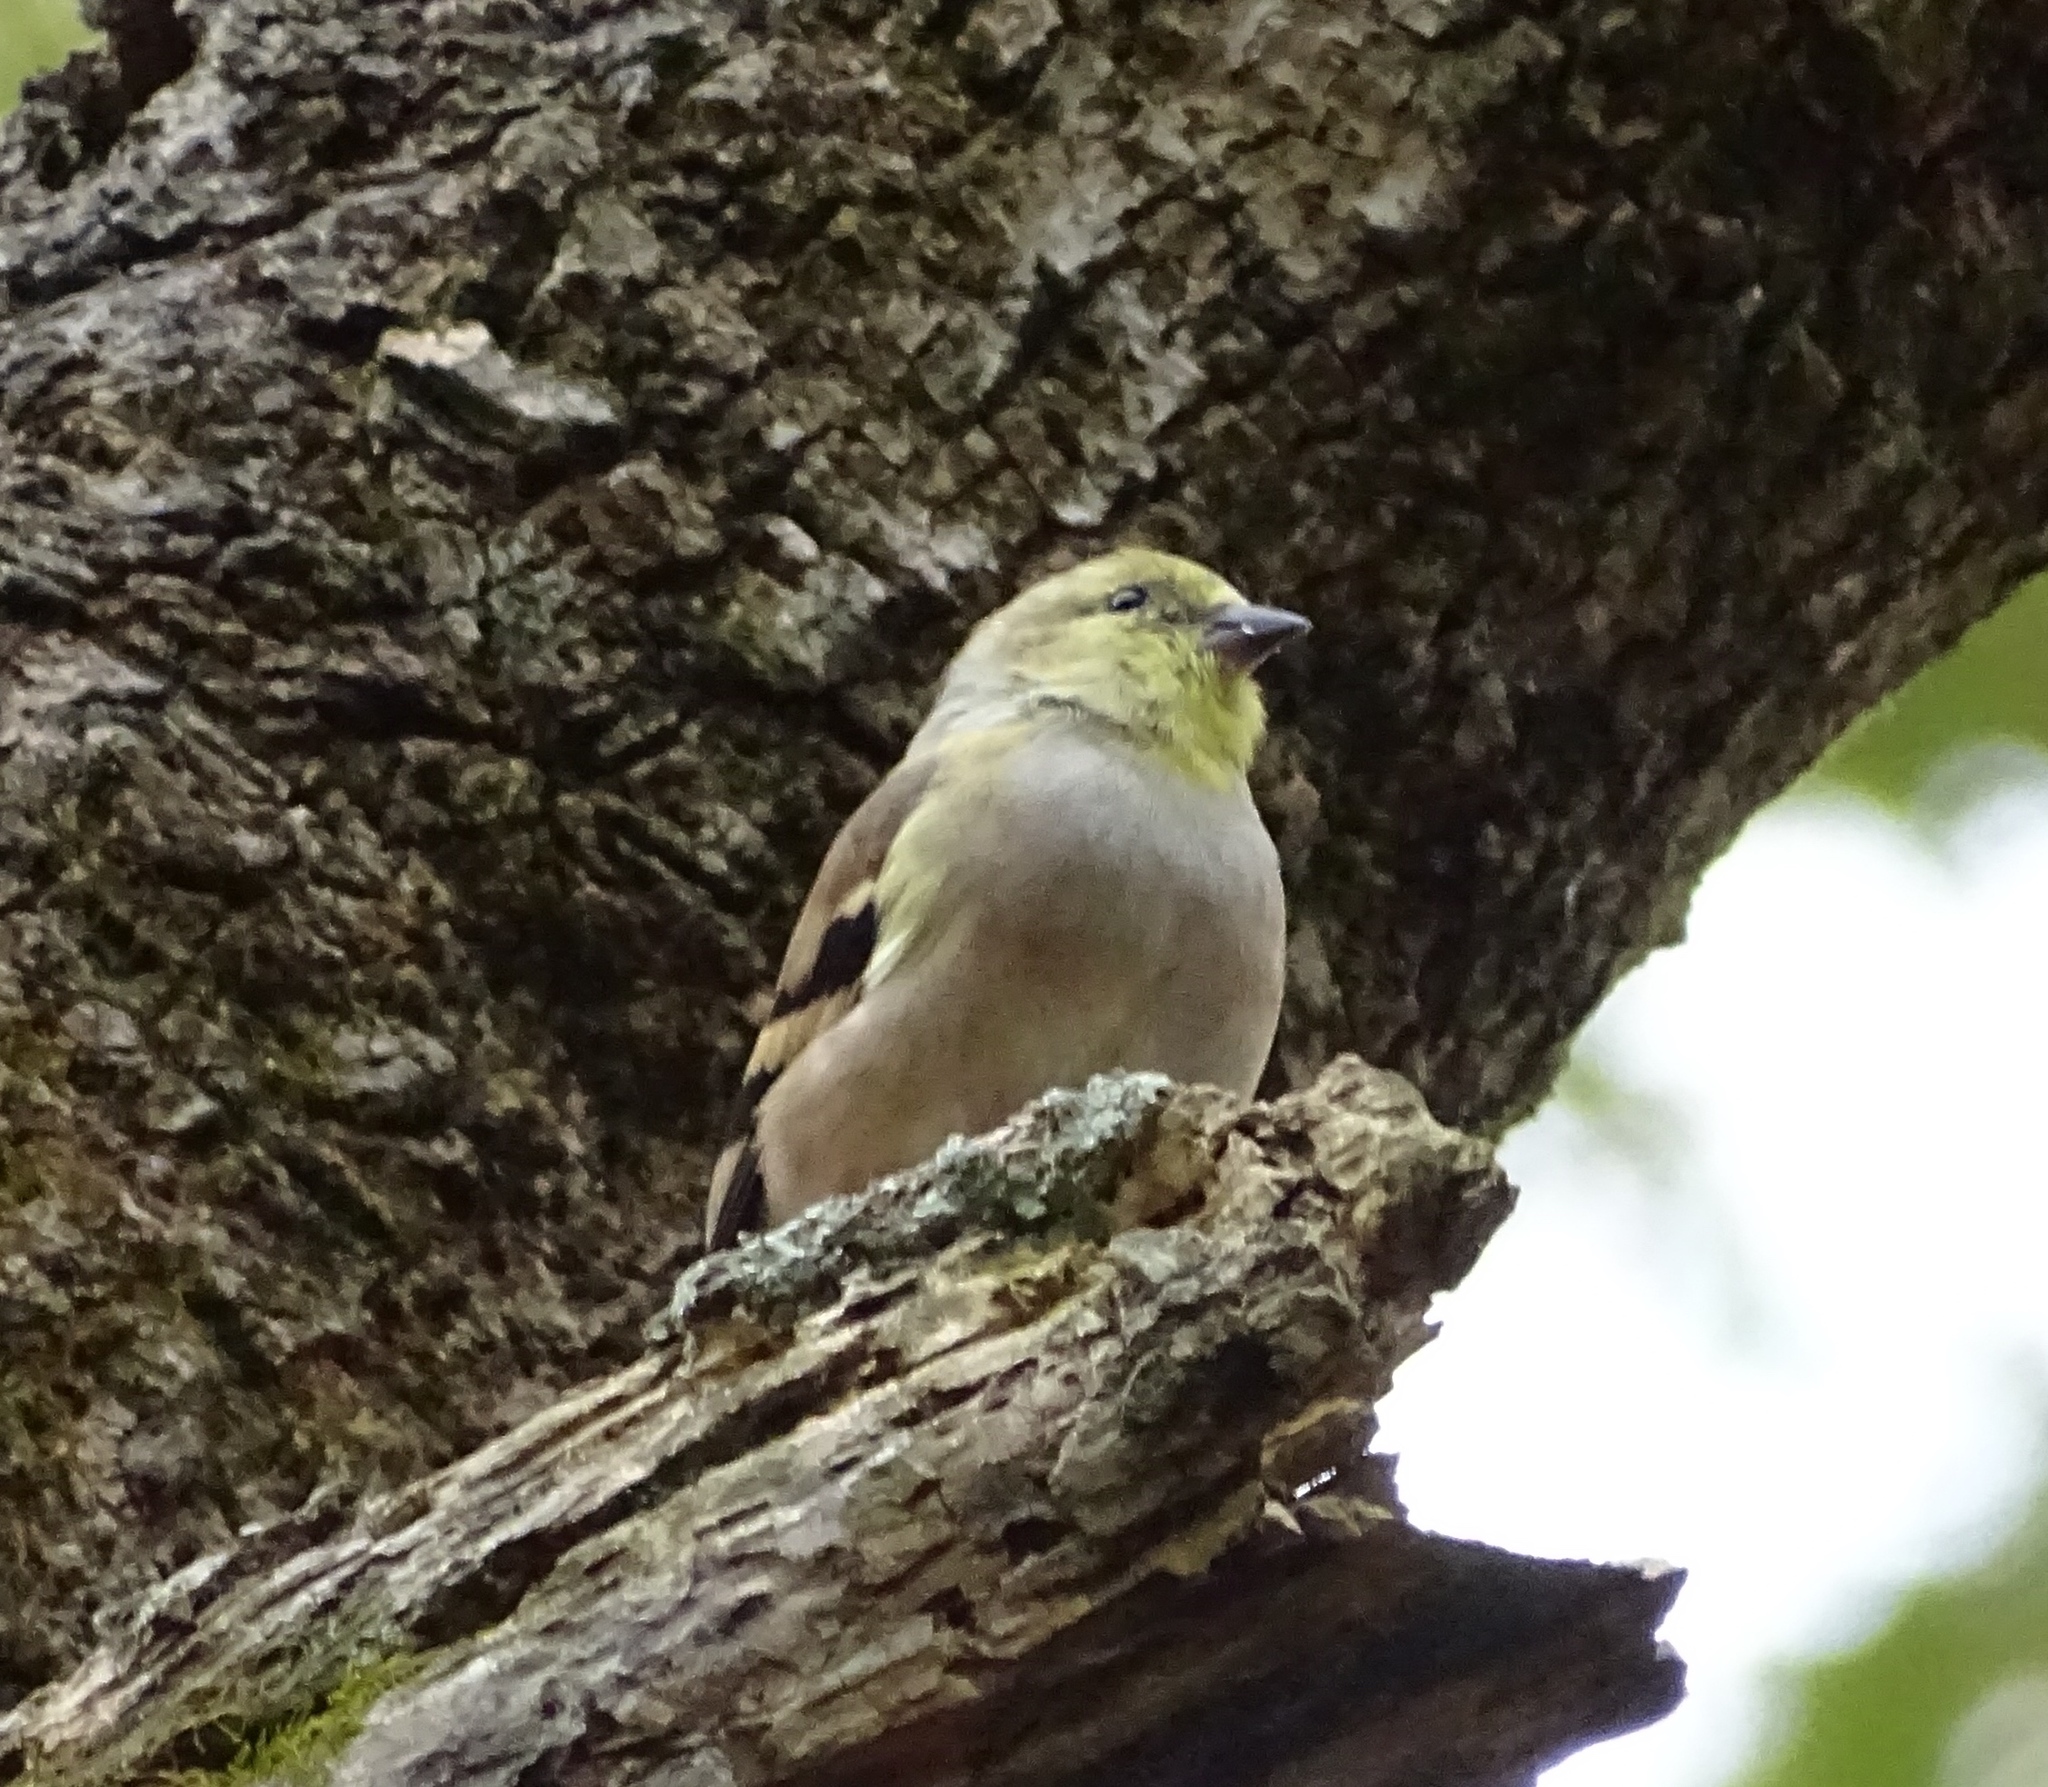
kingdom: Animalia
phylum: Chordata
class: Aves
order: Passeriformes
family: Fringillidae
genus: Spinus
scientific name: Spinus tristis
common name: American goldfinch
